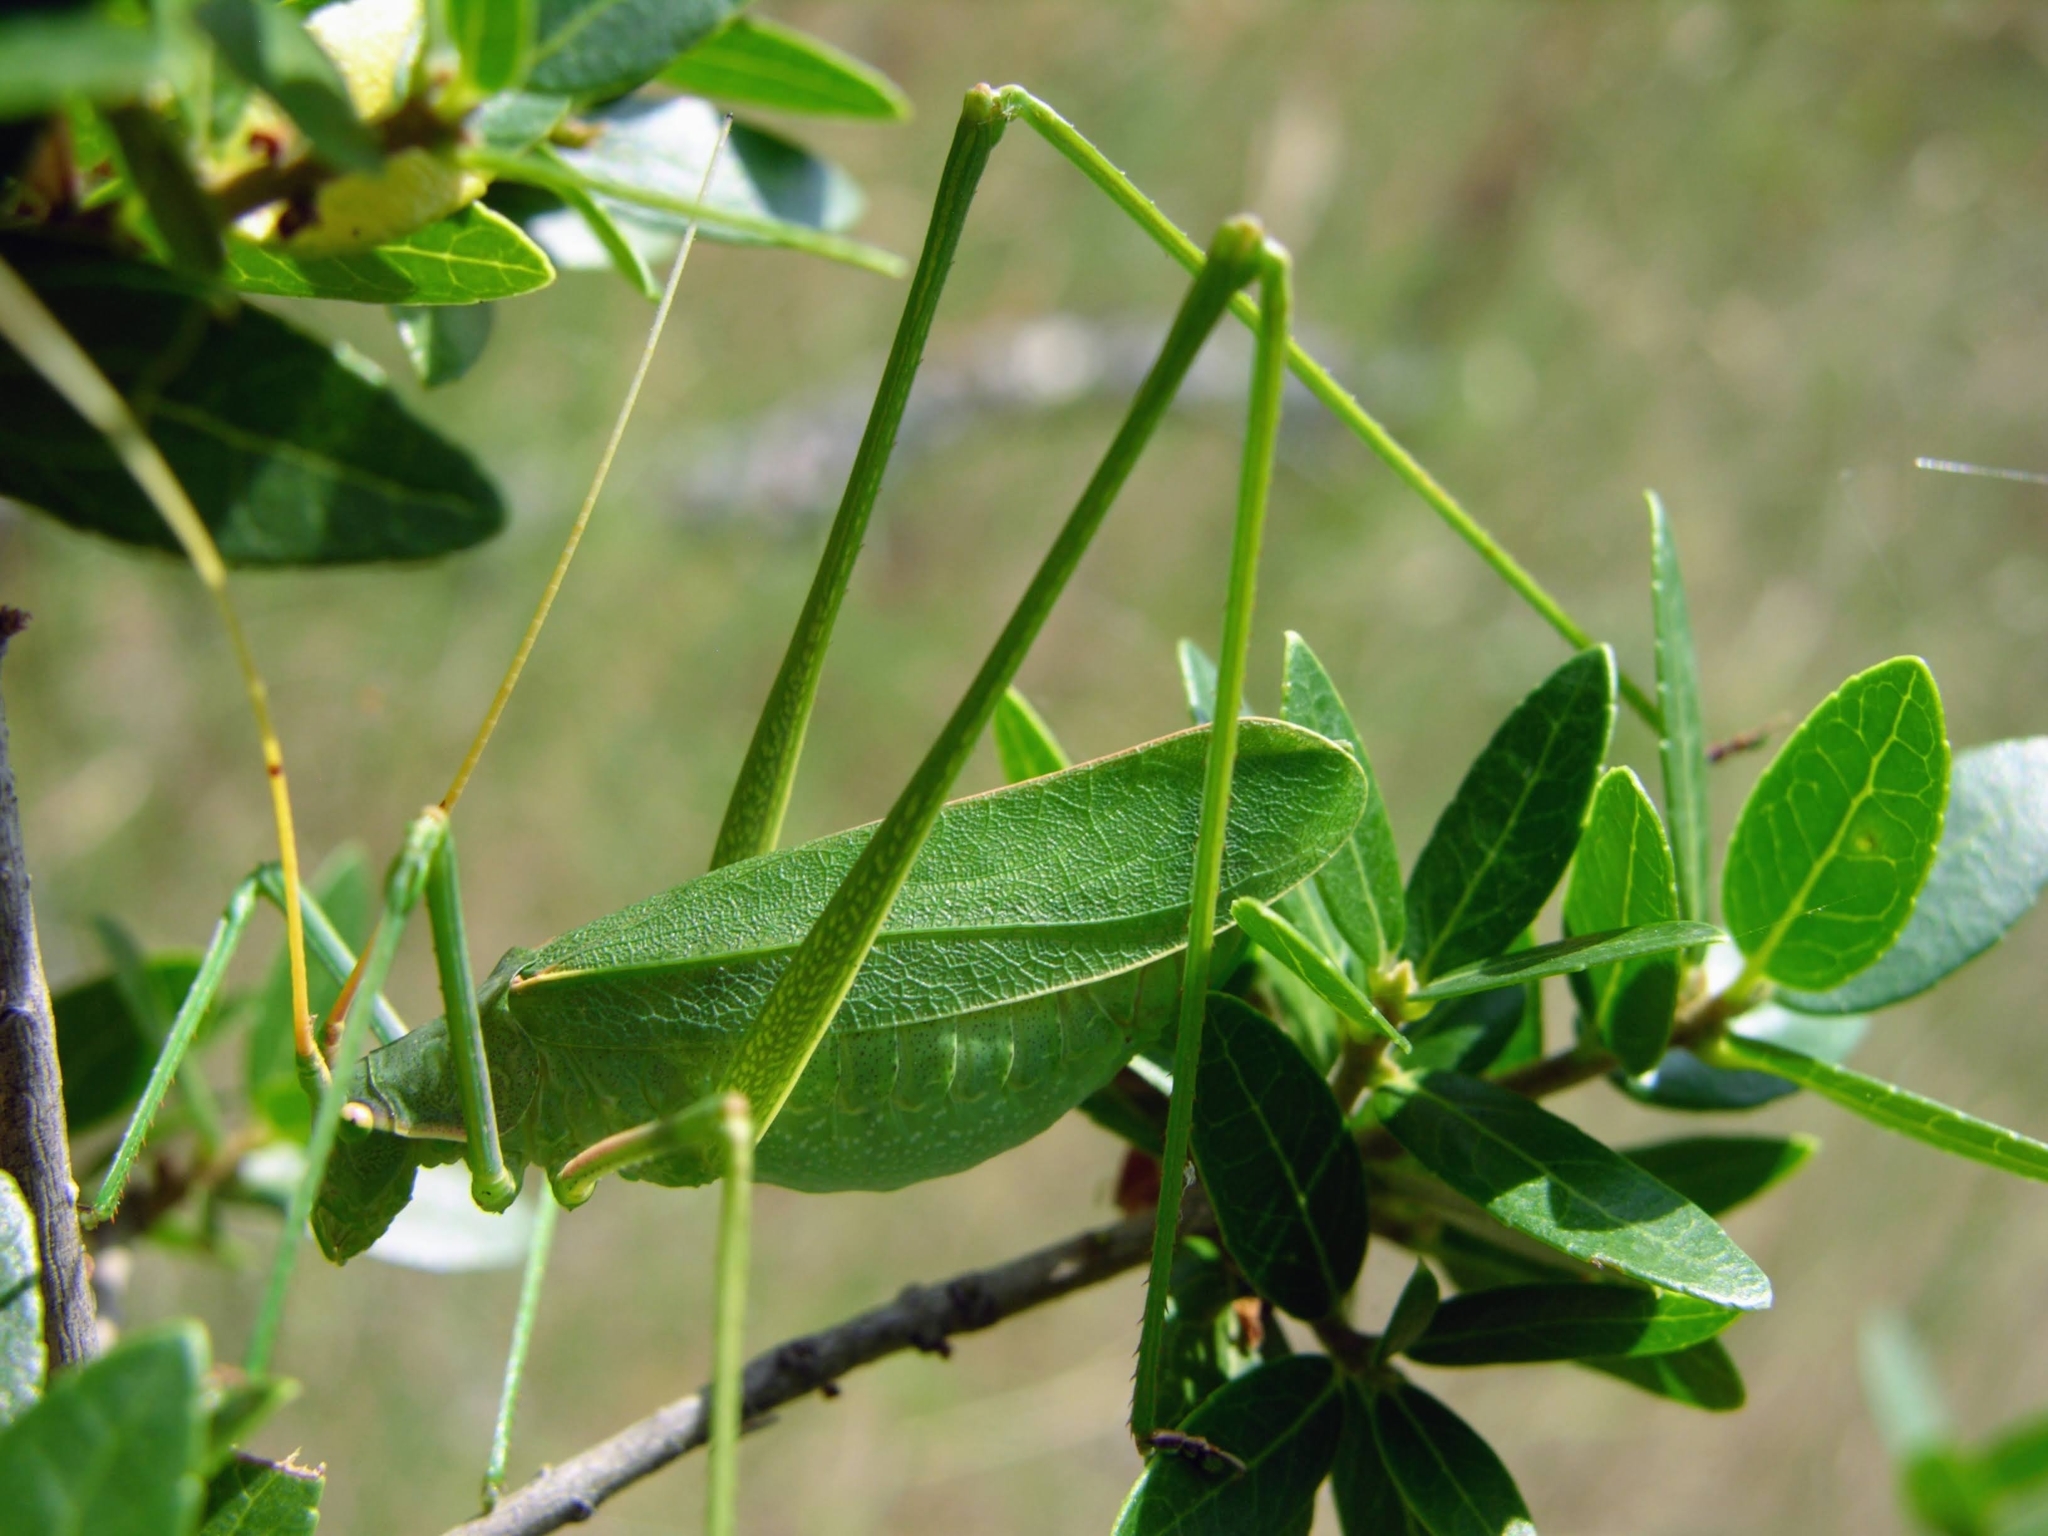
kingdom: Animalia
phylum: Arthropoda
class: Insecta
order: Orthoptera
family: Tettigoniidae
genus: Acrometopa
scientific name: Acrometopa macropoda
